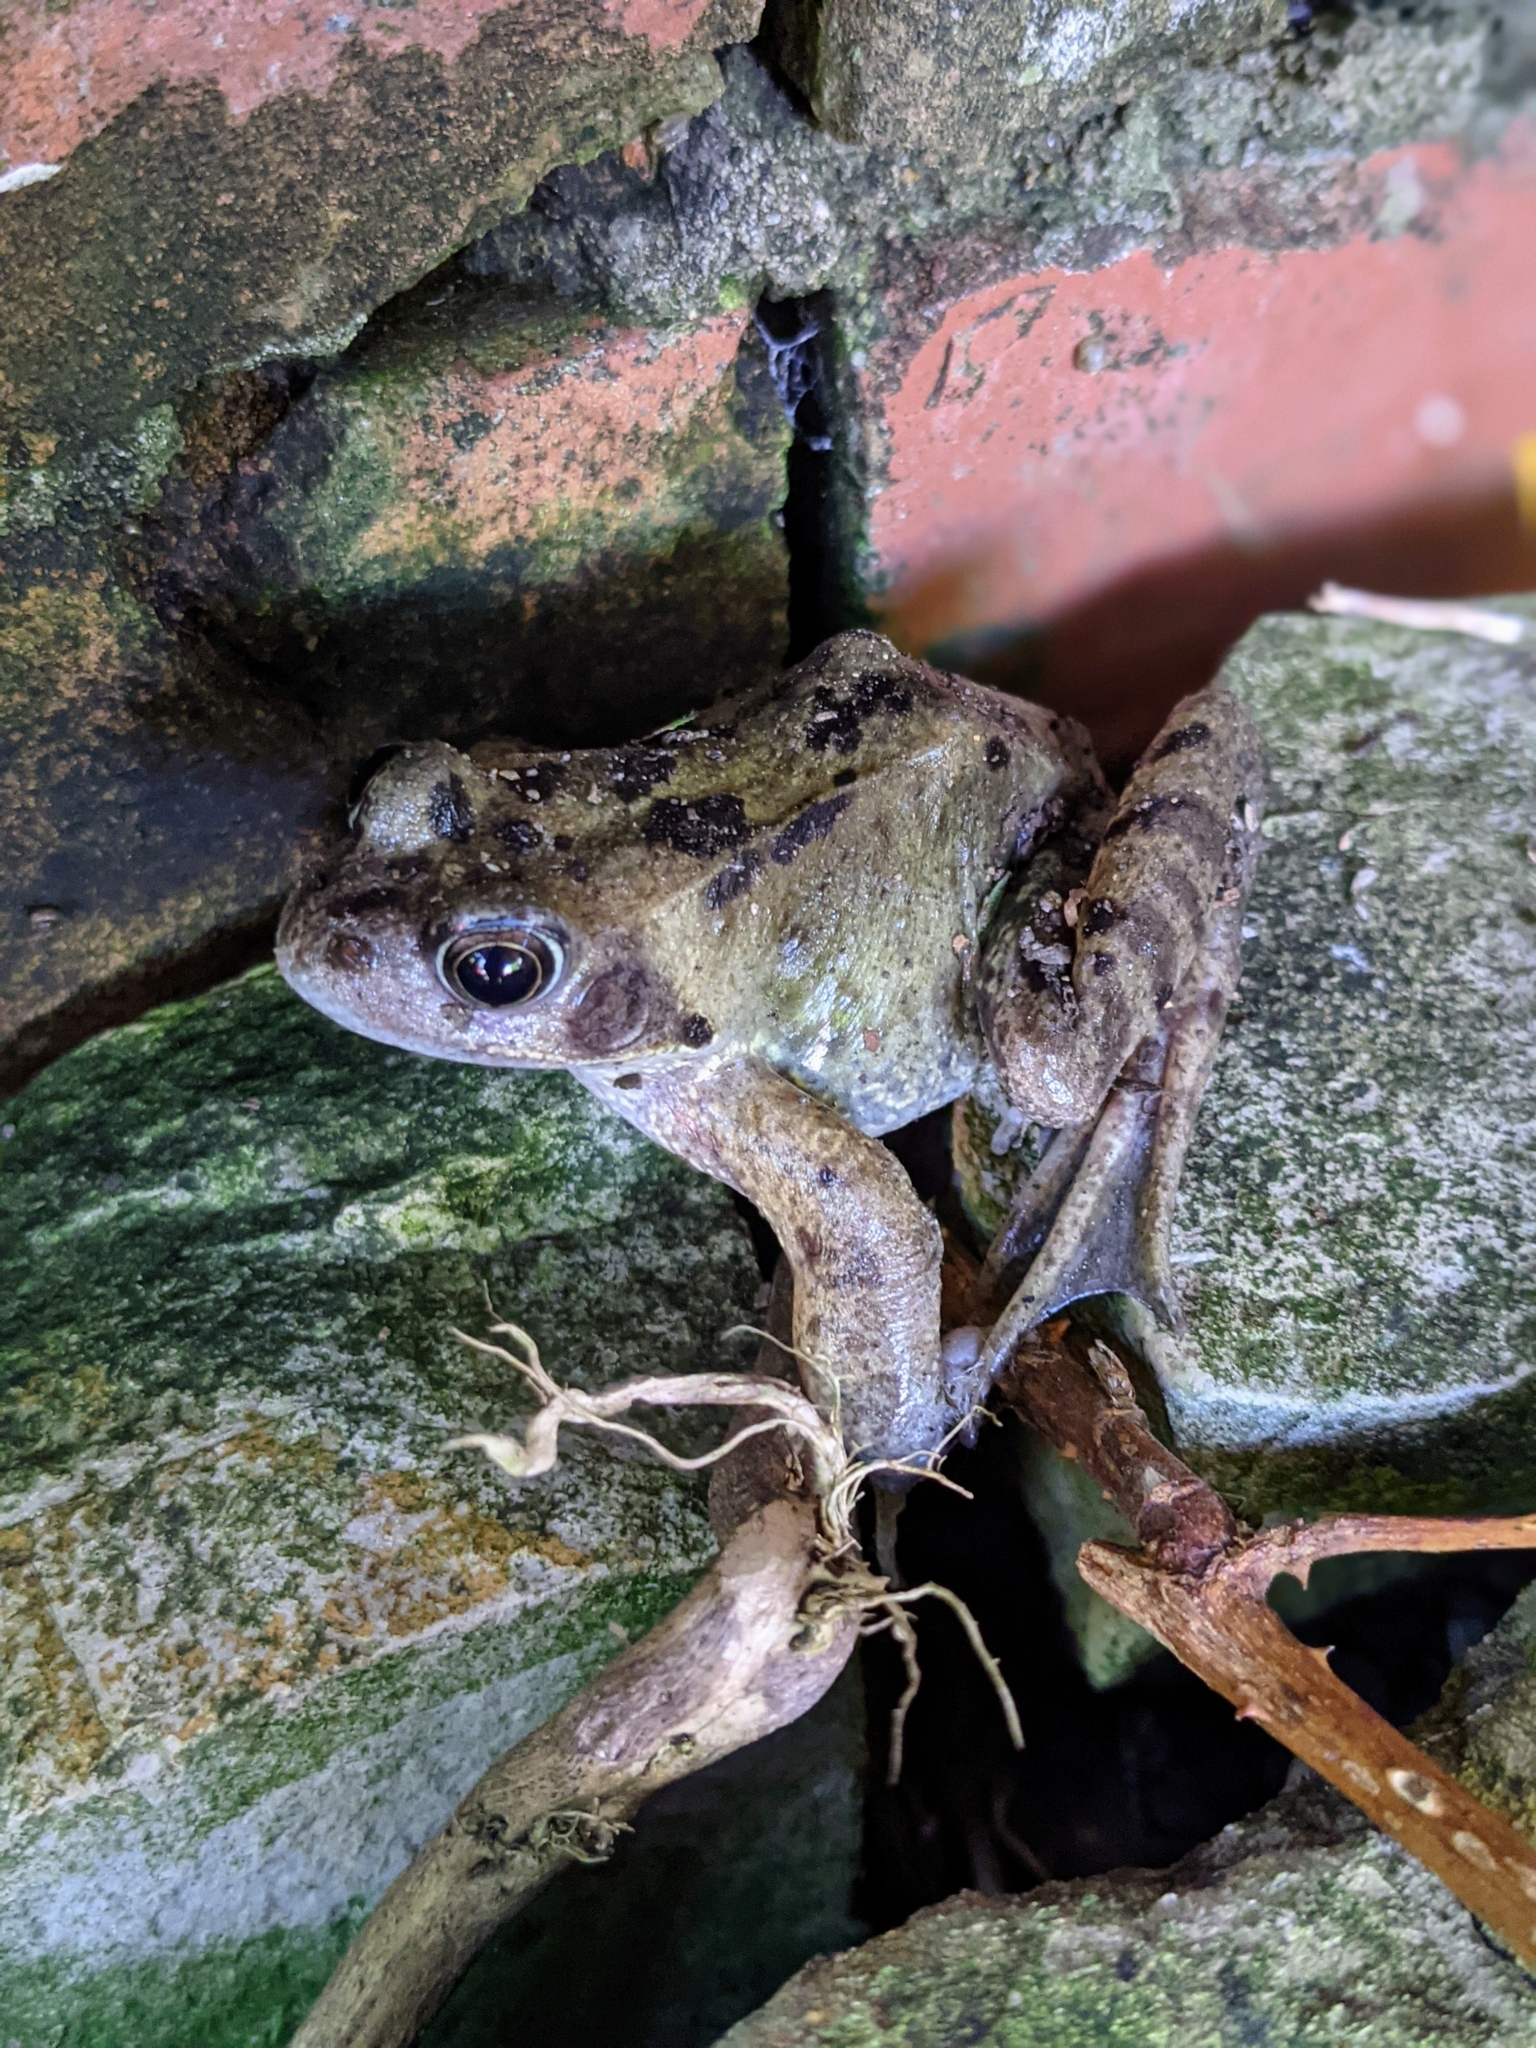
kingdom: Animalia
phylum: Chordata
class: Amphibia
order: Anura
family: Ranidae
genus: Rana
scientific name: Rana temporaria
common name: Common frog
